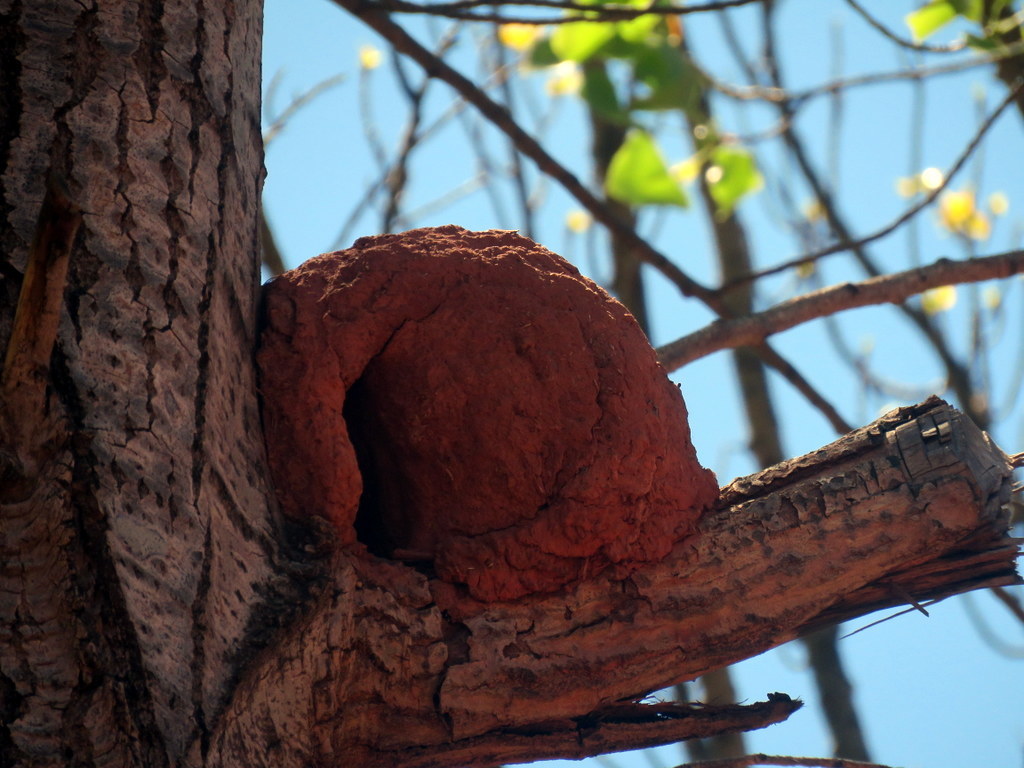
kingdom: Animalia
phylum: Chordata
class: Aves
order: Passeriformes
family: Furnariidae
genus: Furnarius
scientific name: Furnarius rufus
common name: Rufous hornero
